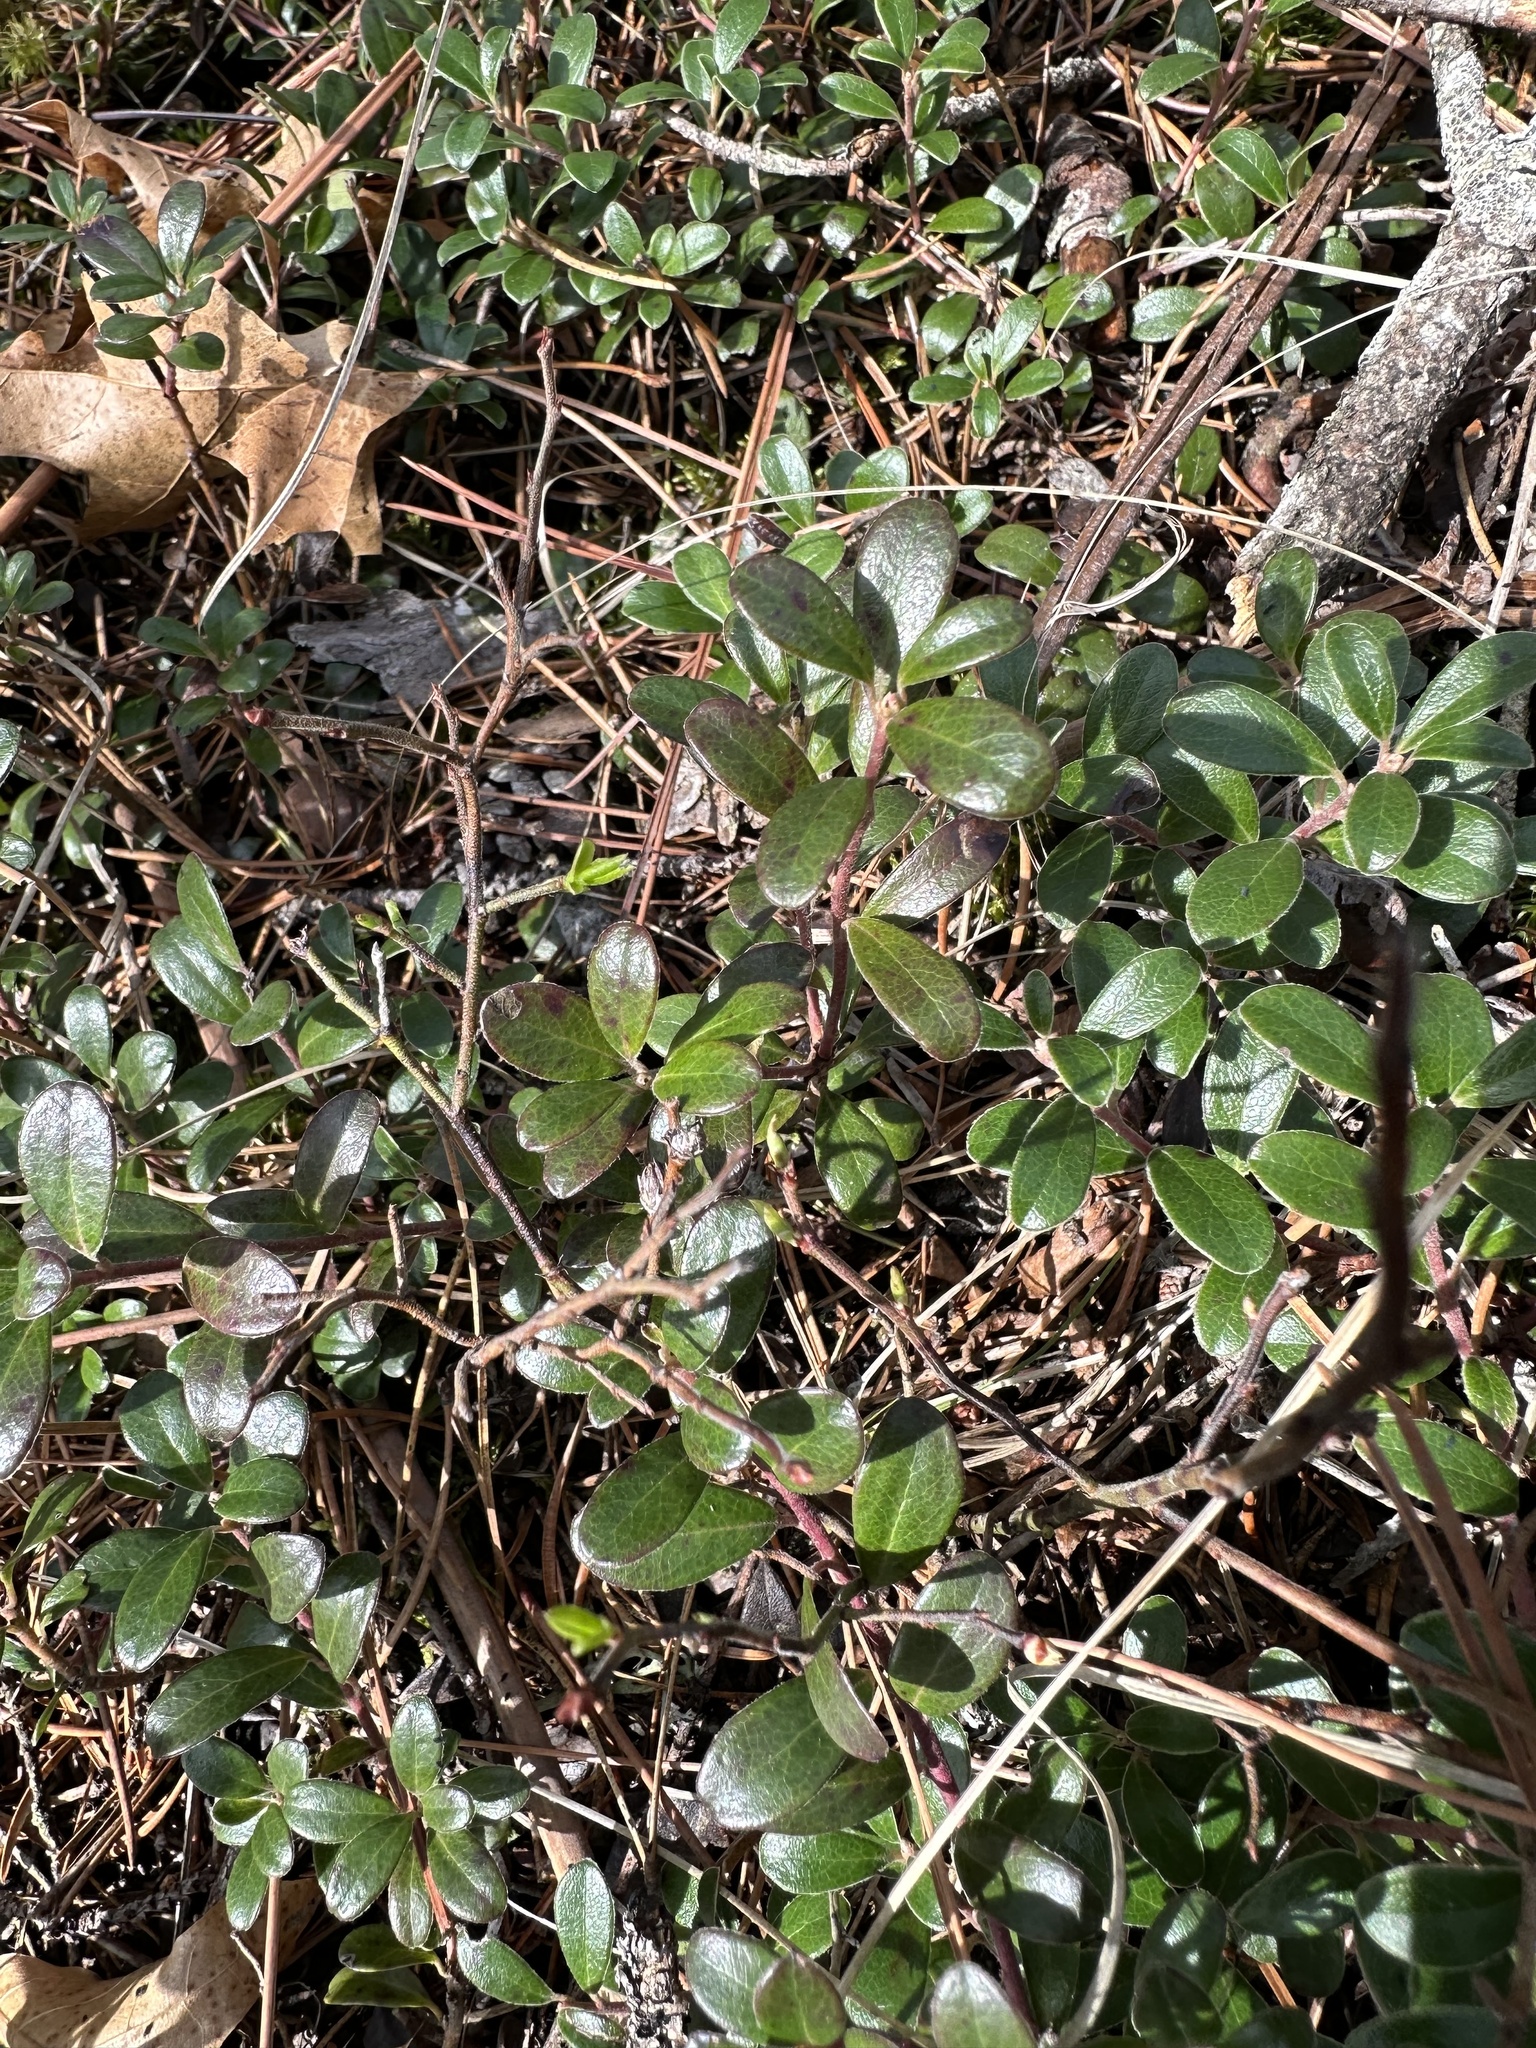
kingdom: Plantae
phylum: Tracheophyta
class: Magnoliopsida
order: Ericales
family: Ericaceae
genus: Arctostaphylos
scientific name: Arctostaphylos uva-ursi
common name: Bearberry
